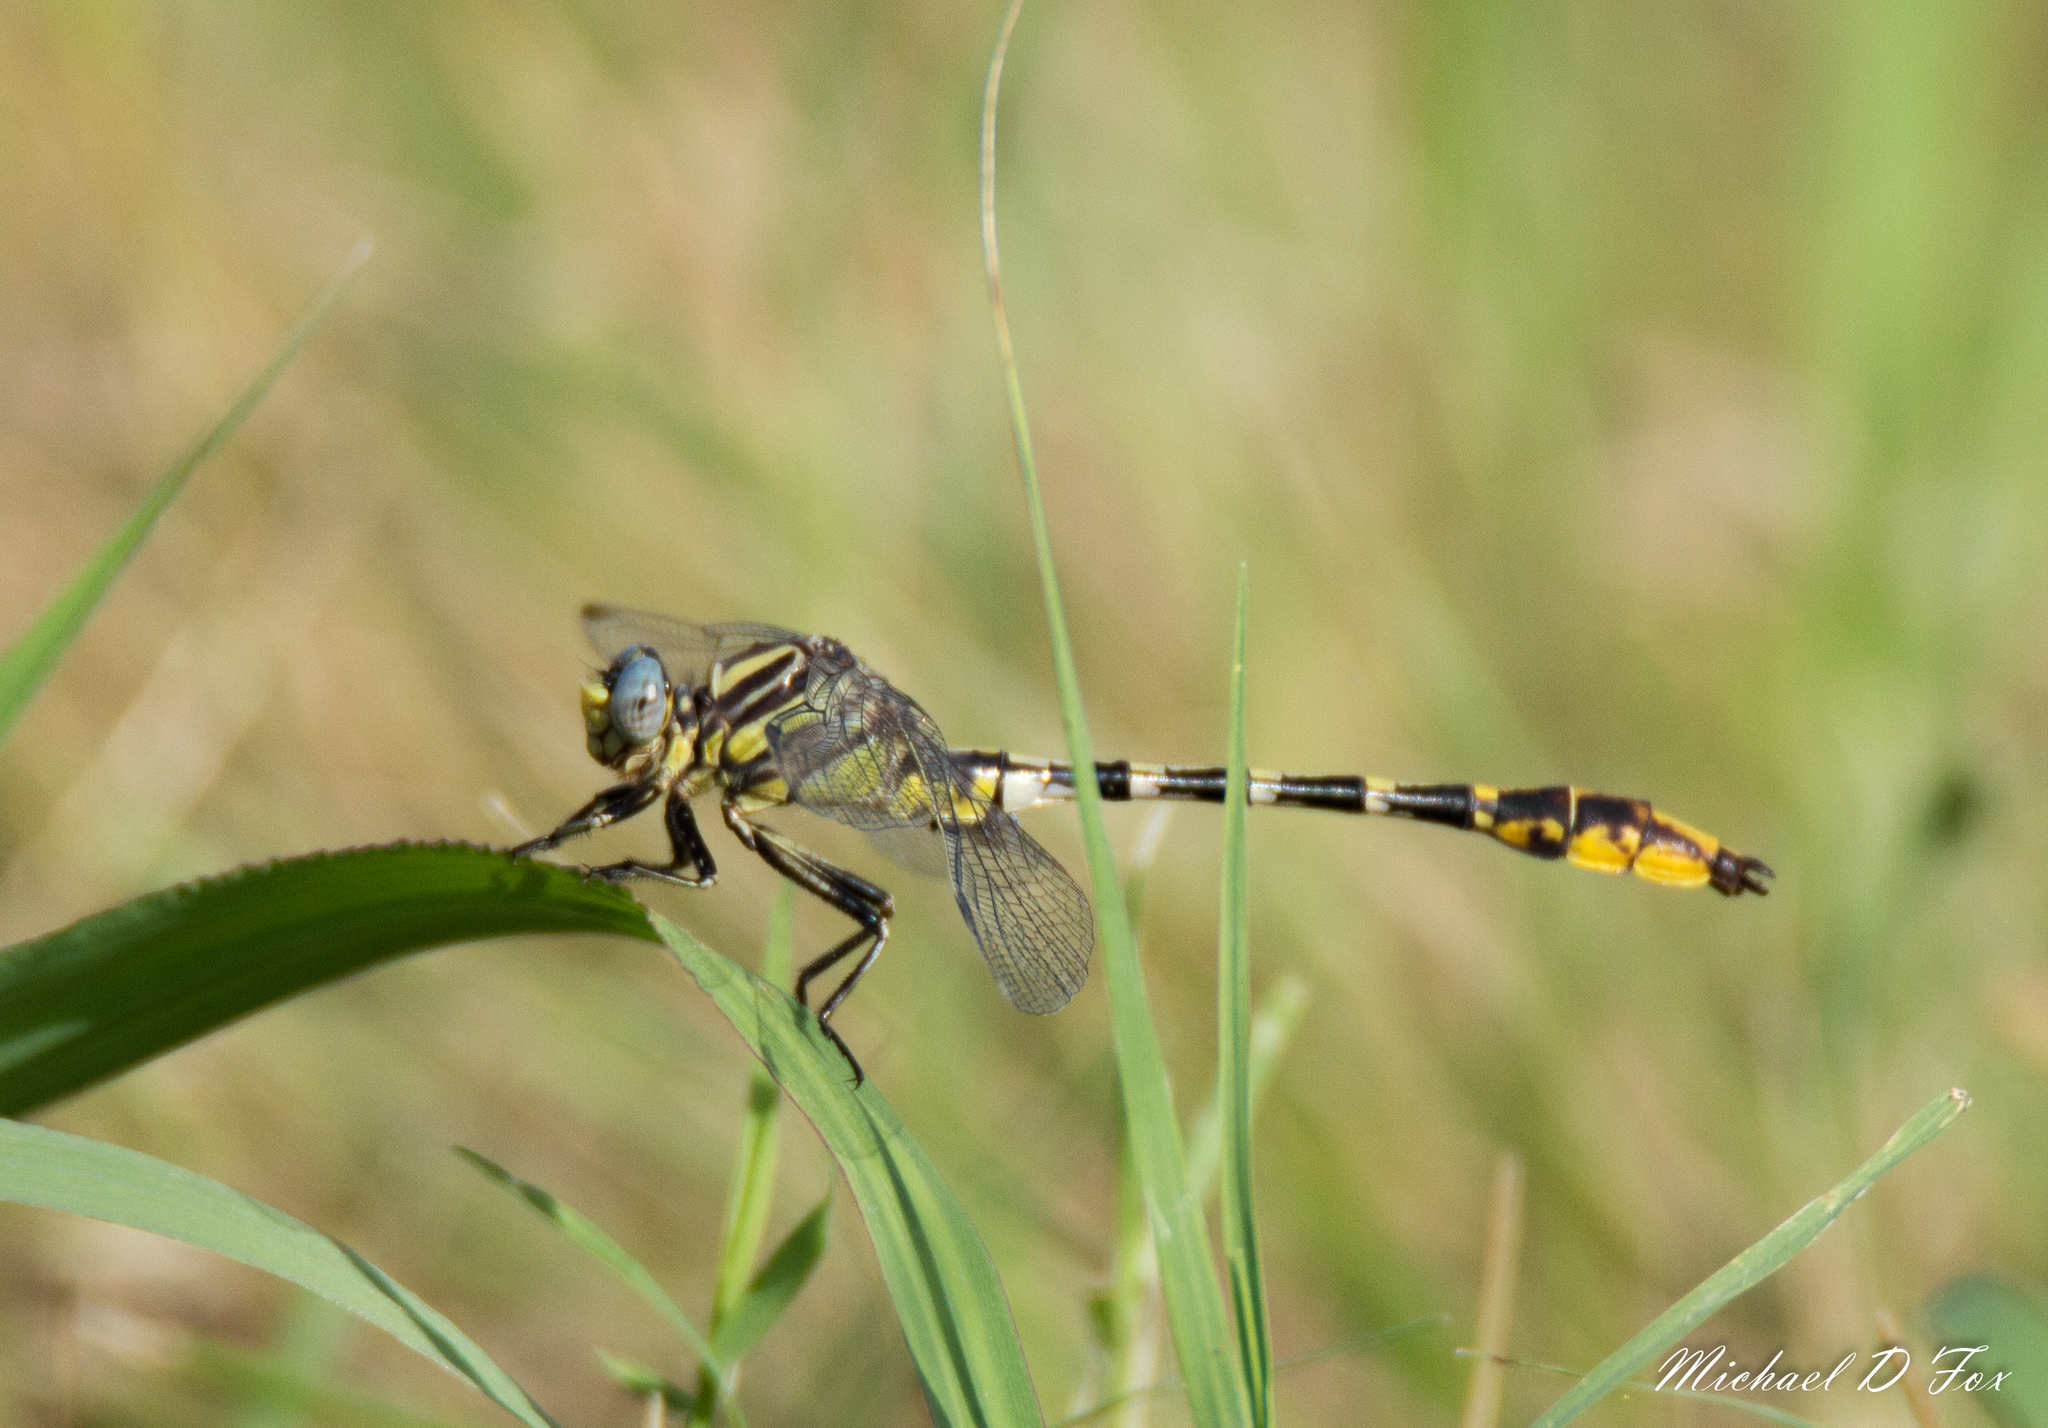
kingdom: Animalia
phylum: Arthropoda
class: Insecta
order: Odonata
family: Gomphidae
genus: Phanogomphus
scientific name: Phanogomphus militaris
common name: Sulphur-tipped clubtail
